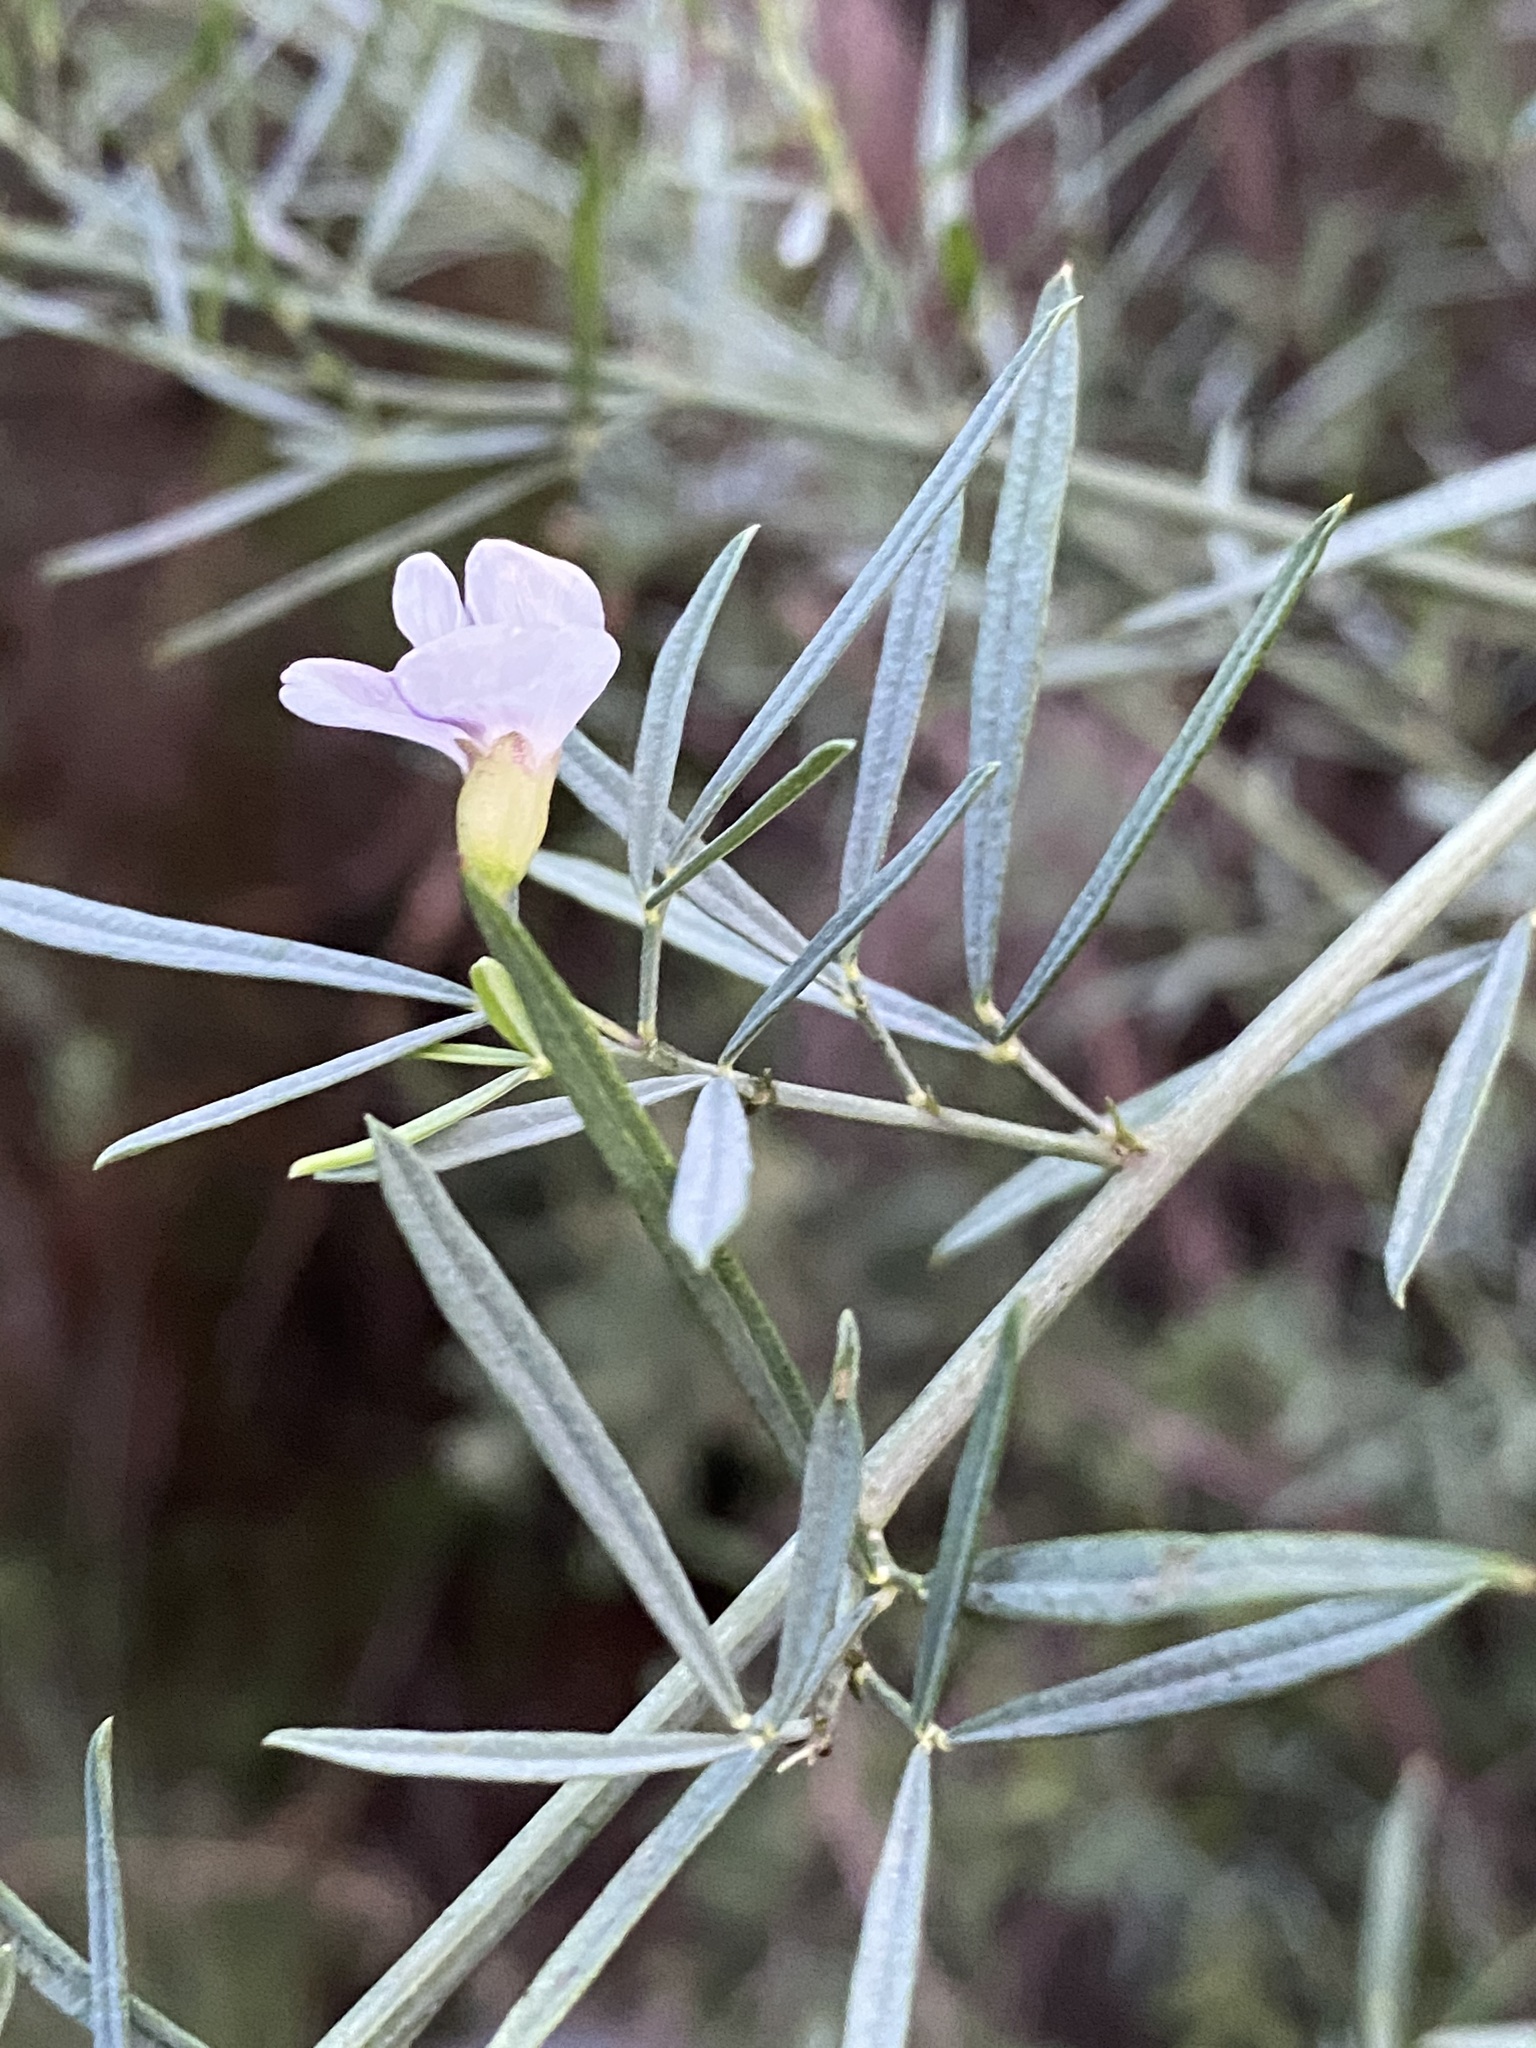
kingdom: Plantae
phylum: Tracheophyta
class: Magnoliopsida
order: Fabales
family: Fabaceae
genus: Psoralea
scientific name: Psoralea oligophylla
